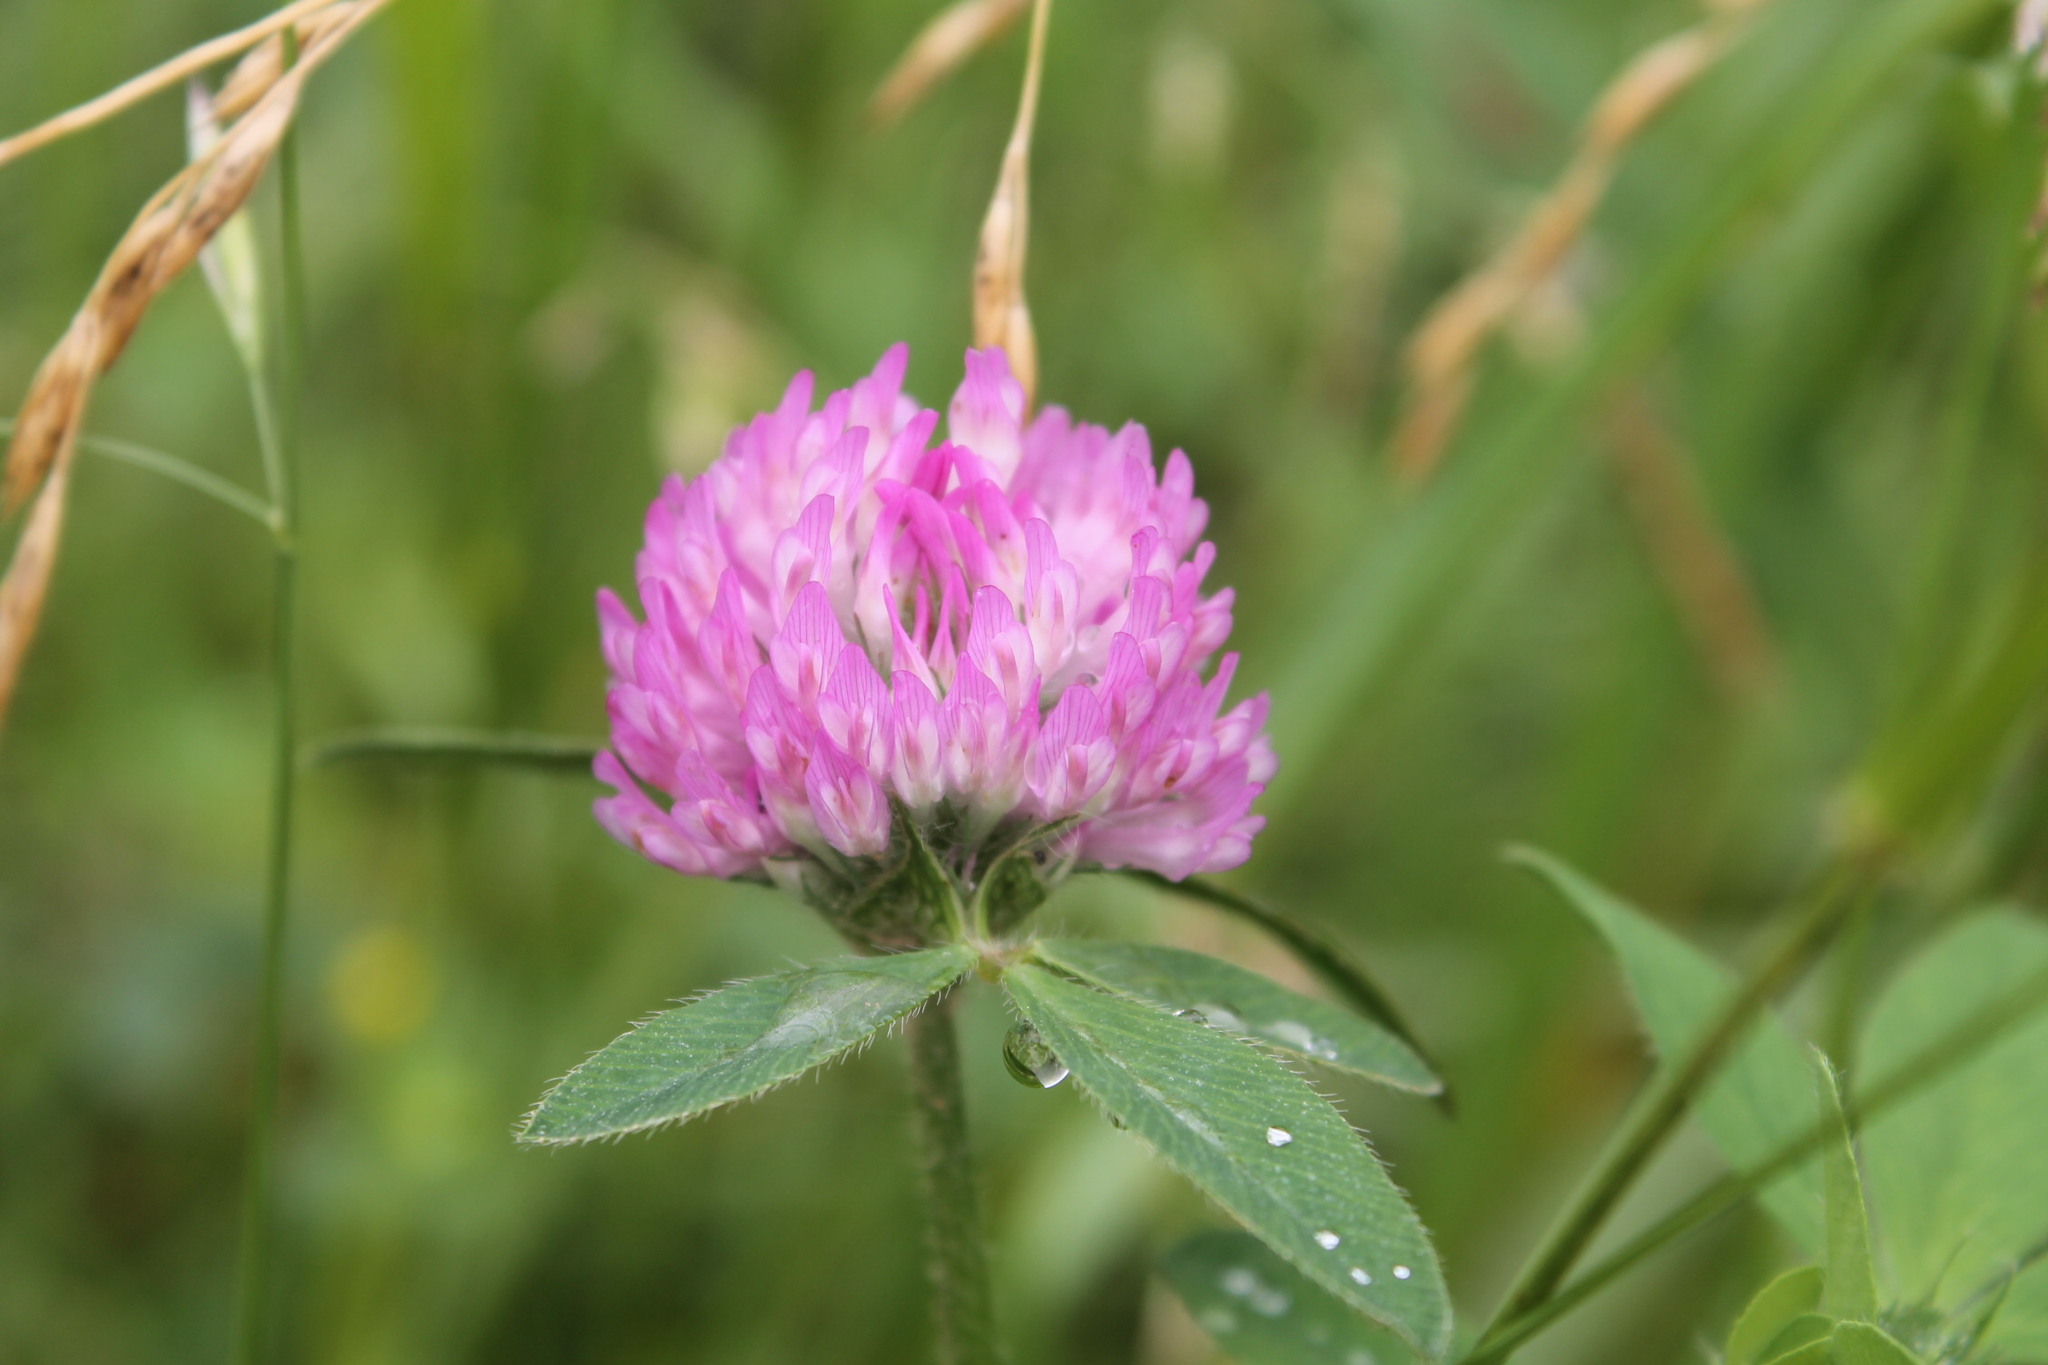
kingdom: Plantae
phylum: Tracheophyta
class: Magnoliopsida
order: Fabales
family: Fabaceae
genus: Trifolium
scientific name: Trifolium pratense
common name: Red clover
